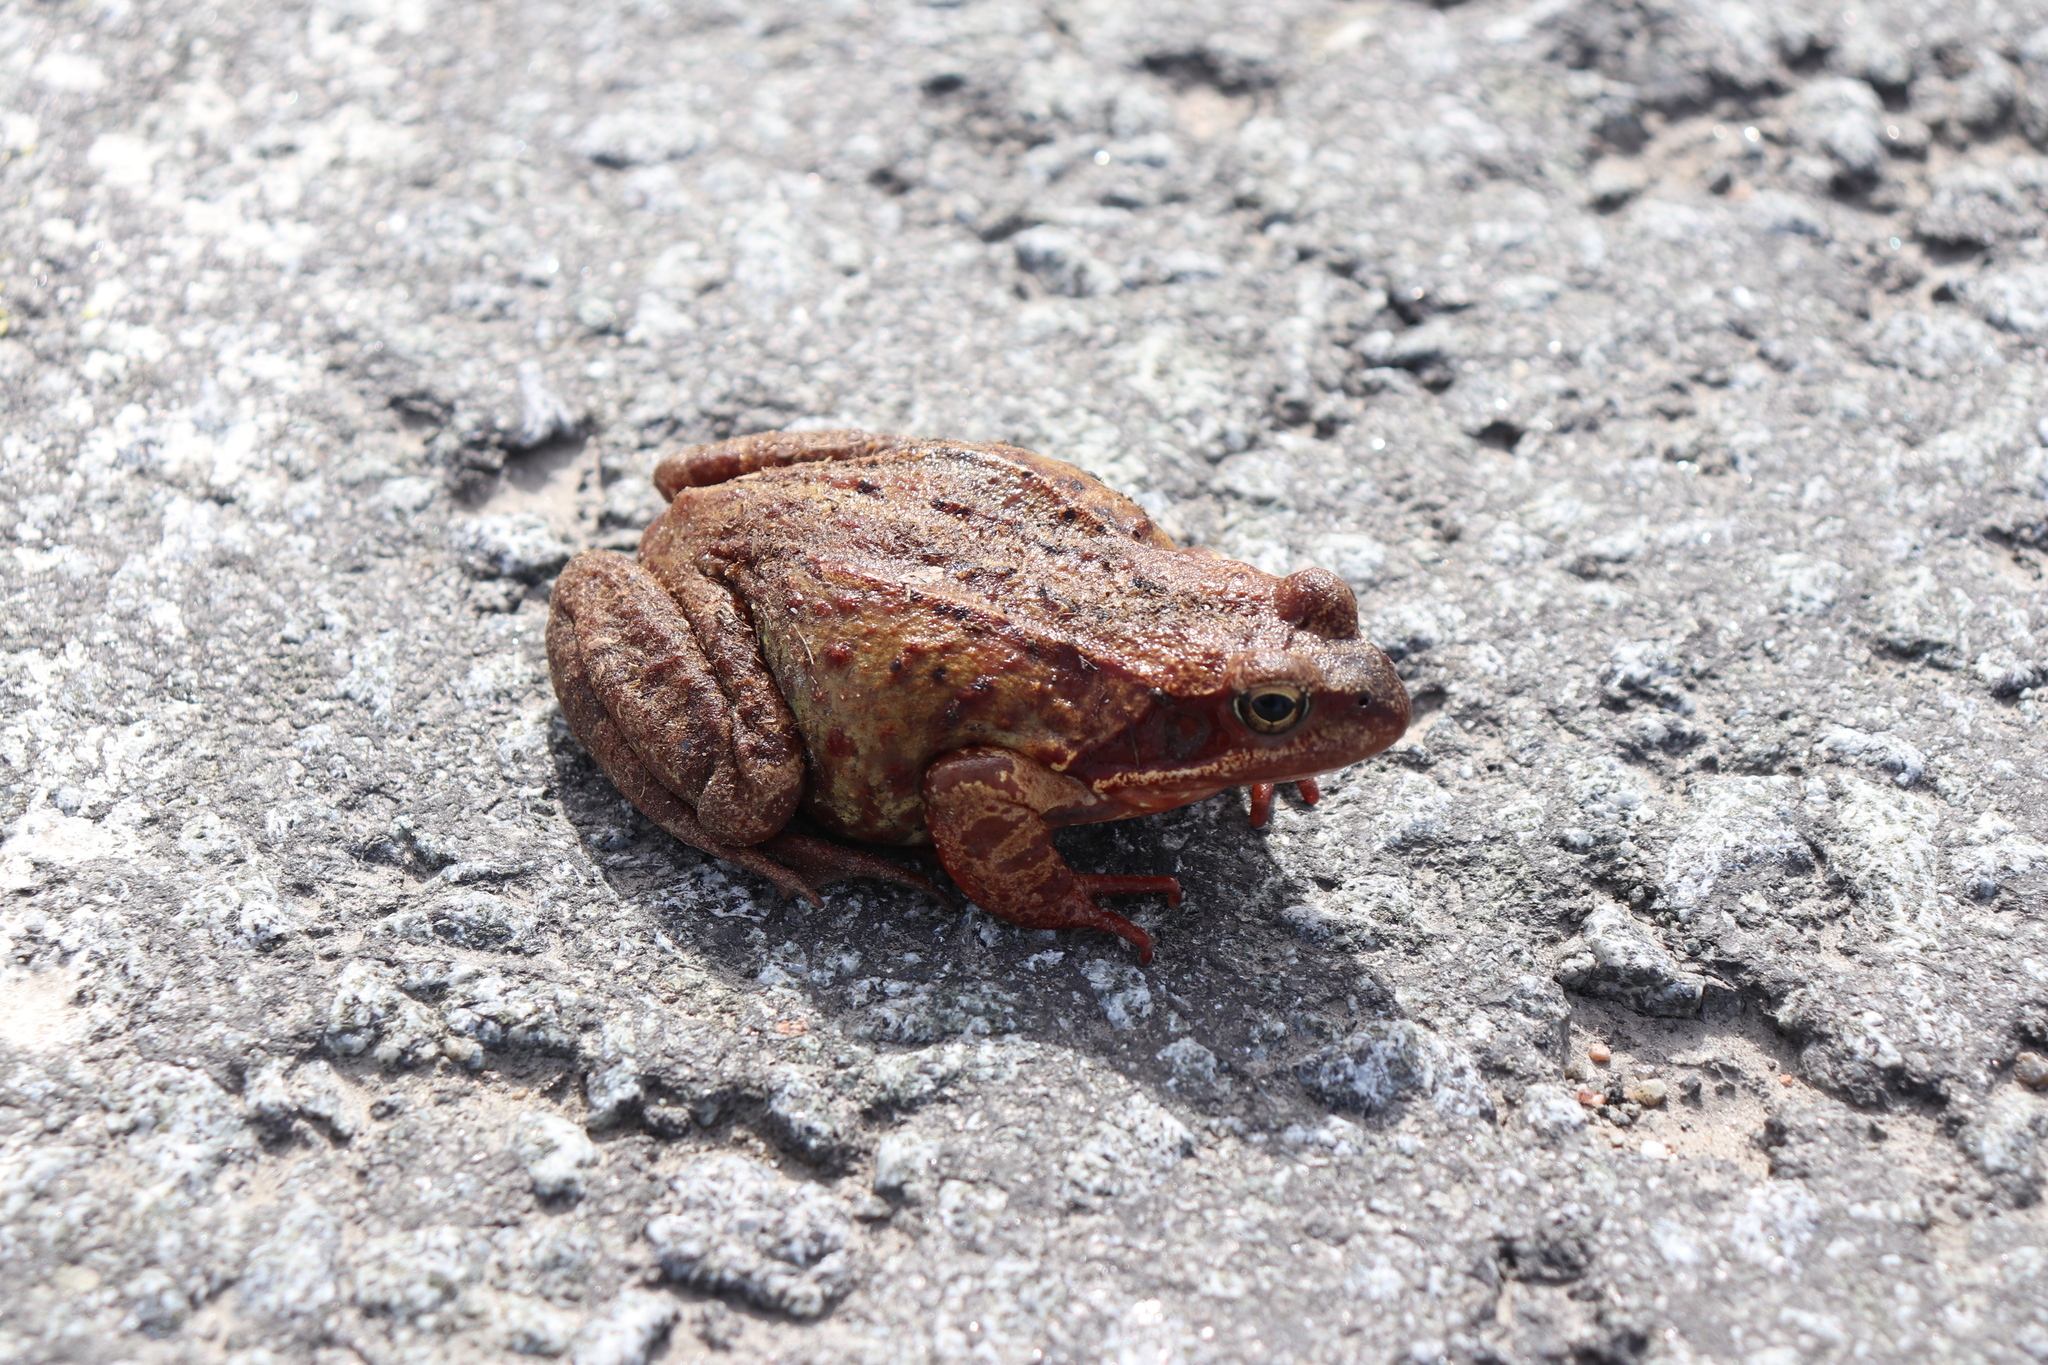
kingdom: Animalia
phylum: Chordata
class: Amphibia
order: Anura
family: Ranidae
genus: Rana
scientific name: Rana temporaria
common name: Common frog
